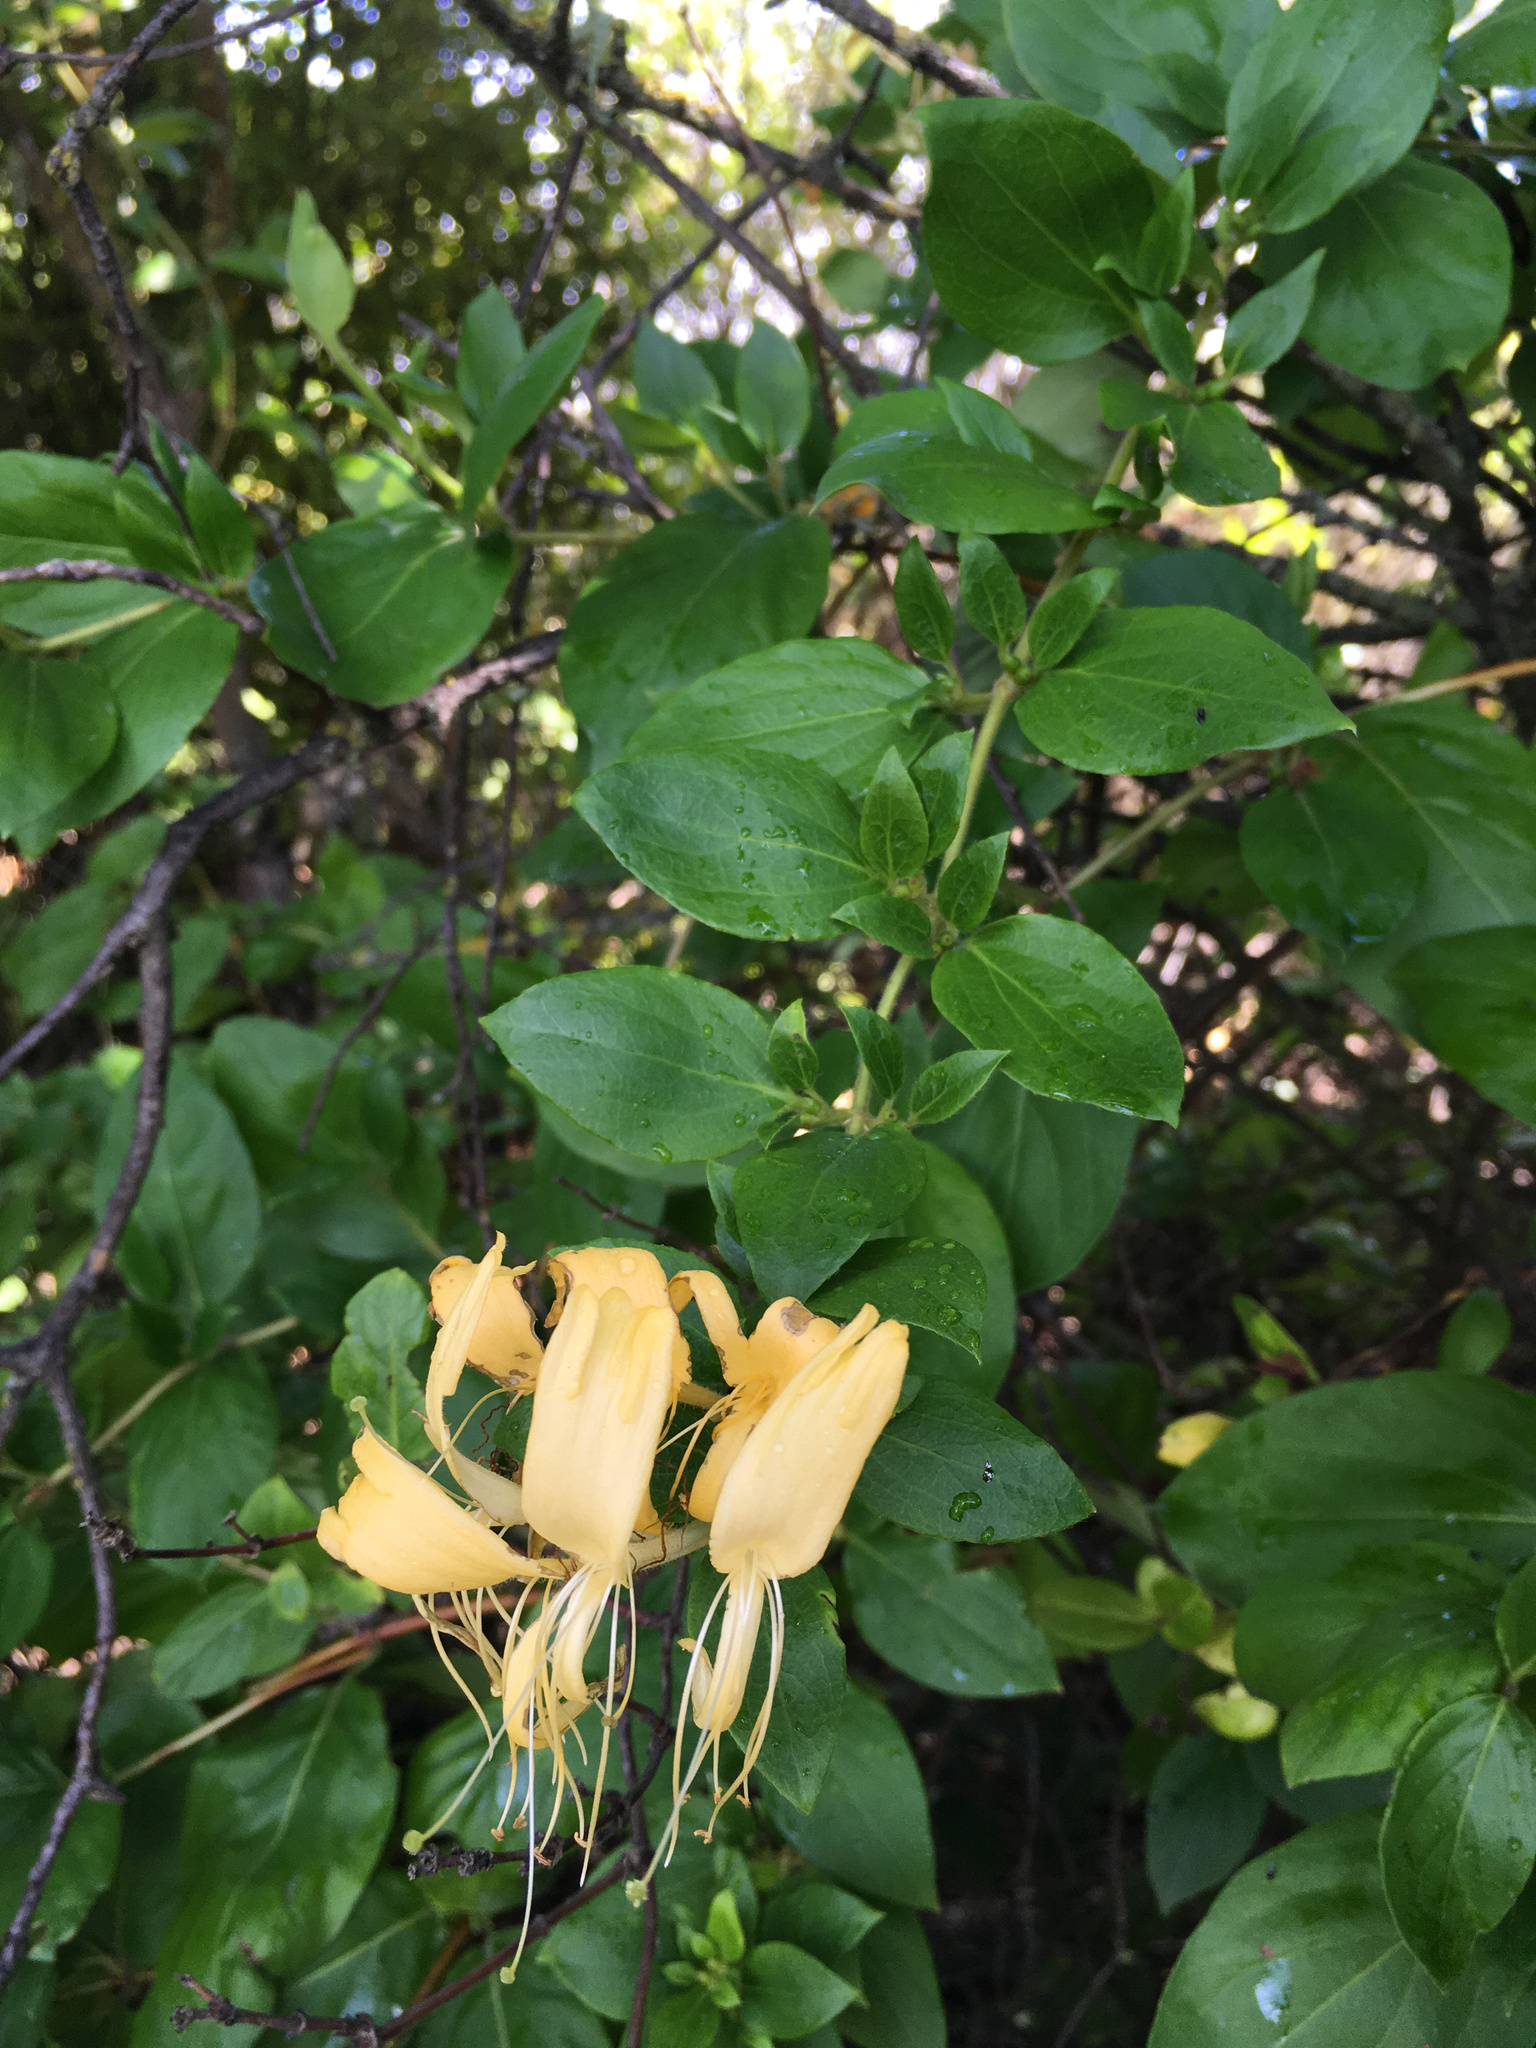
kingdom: Plantae
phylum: Tracheophyta
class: Magnoliopsida
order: Dipsacales
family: Caprifoliaceae
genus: Lonicera
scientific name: Lonicera japonica
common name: Japanese honeysuckle
